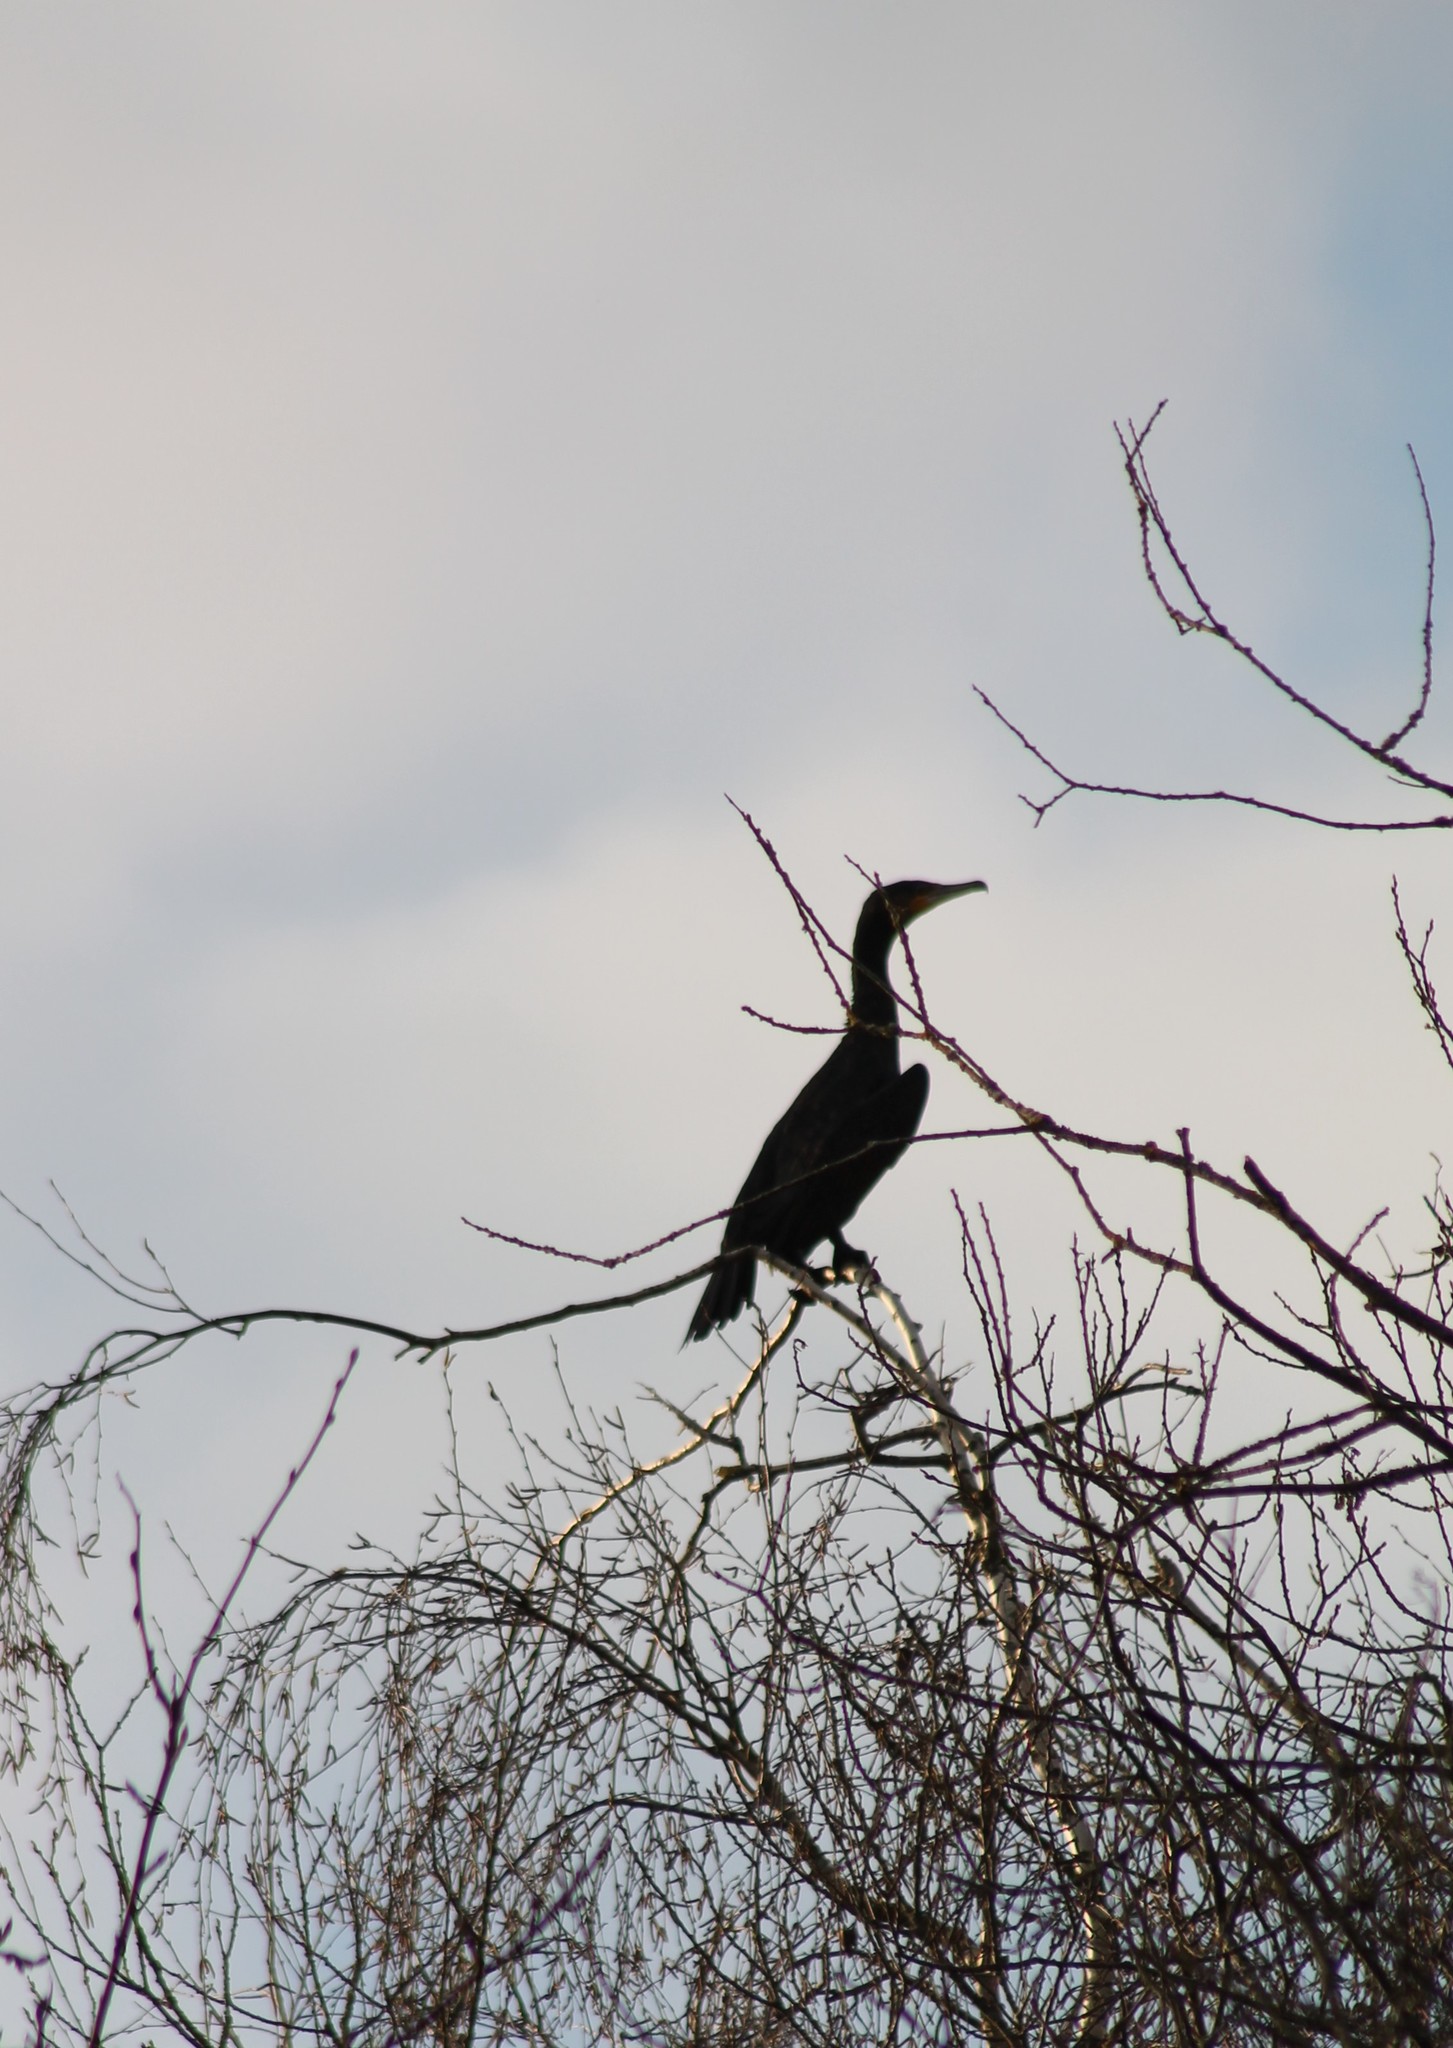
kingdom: Animalia
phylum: Chordata
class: Aves
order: Suliformes
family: Phalacrocoracidae
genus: Phalacrocorax
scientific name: Phalacrocorax carbo
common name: Great cormorant
